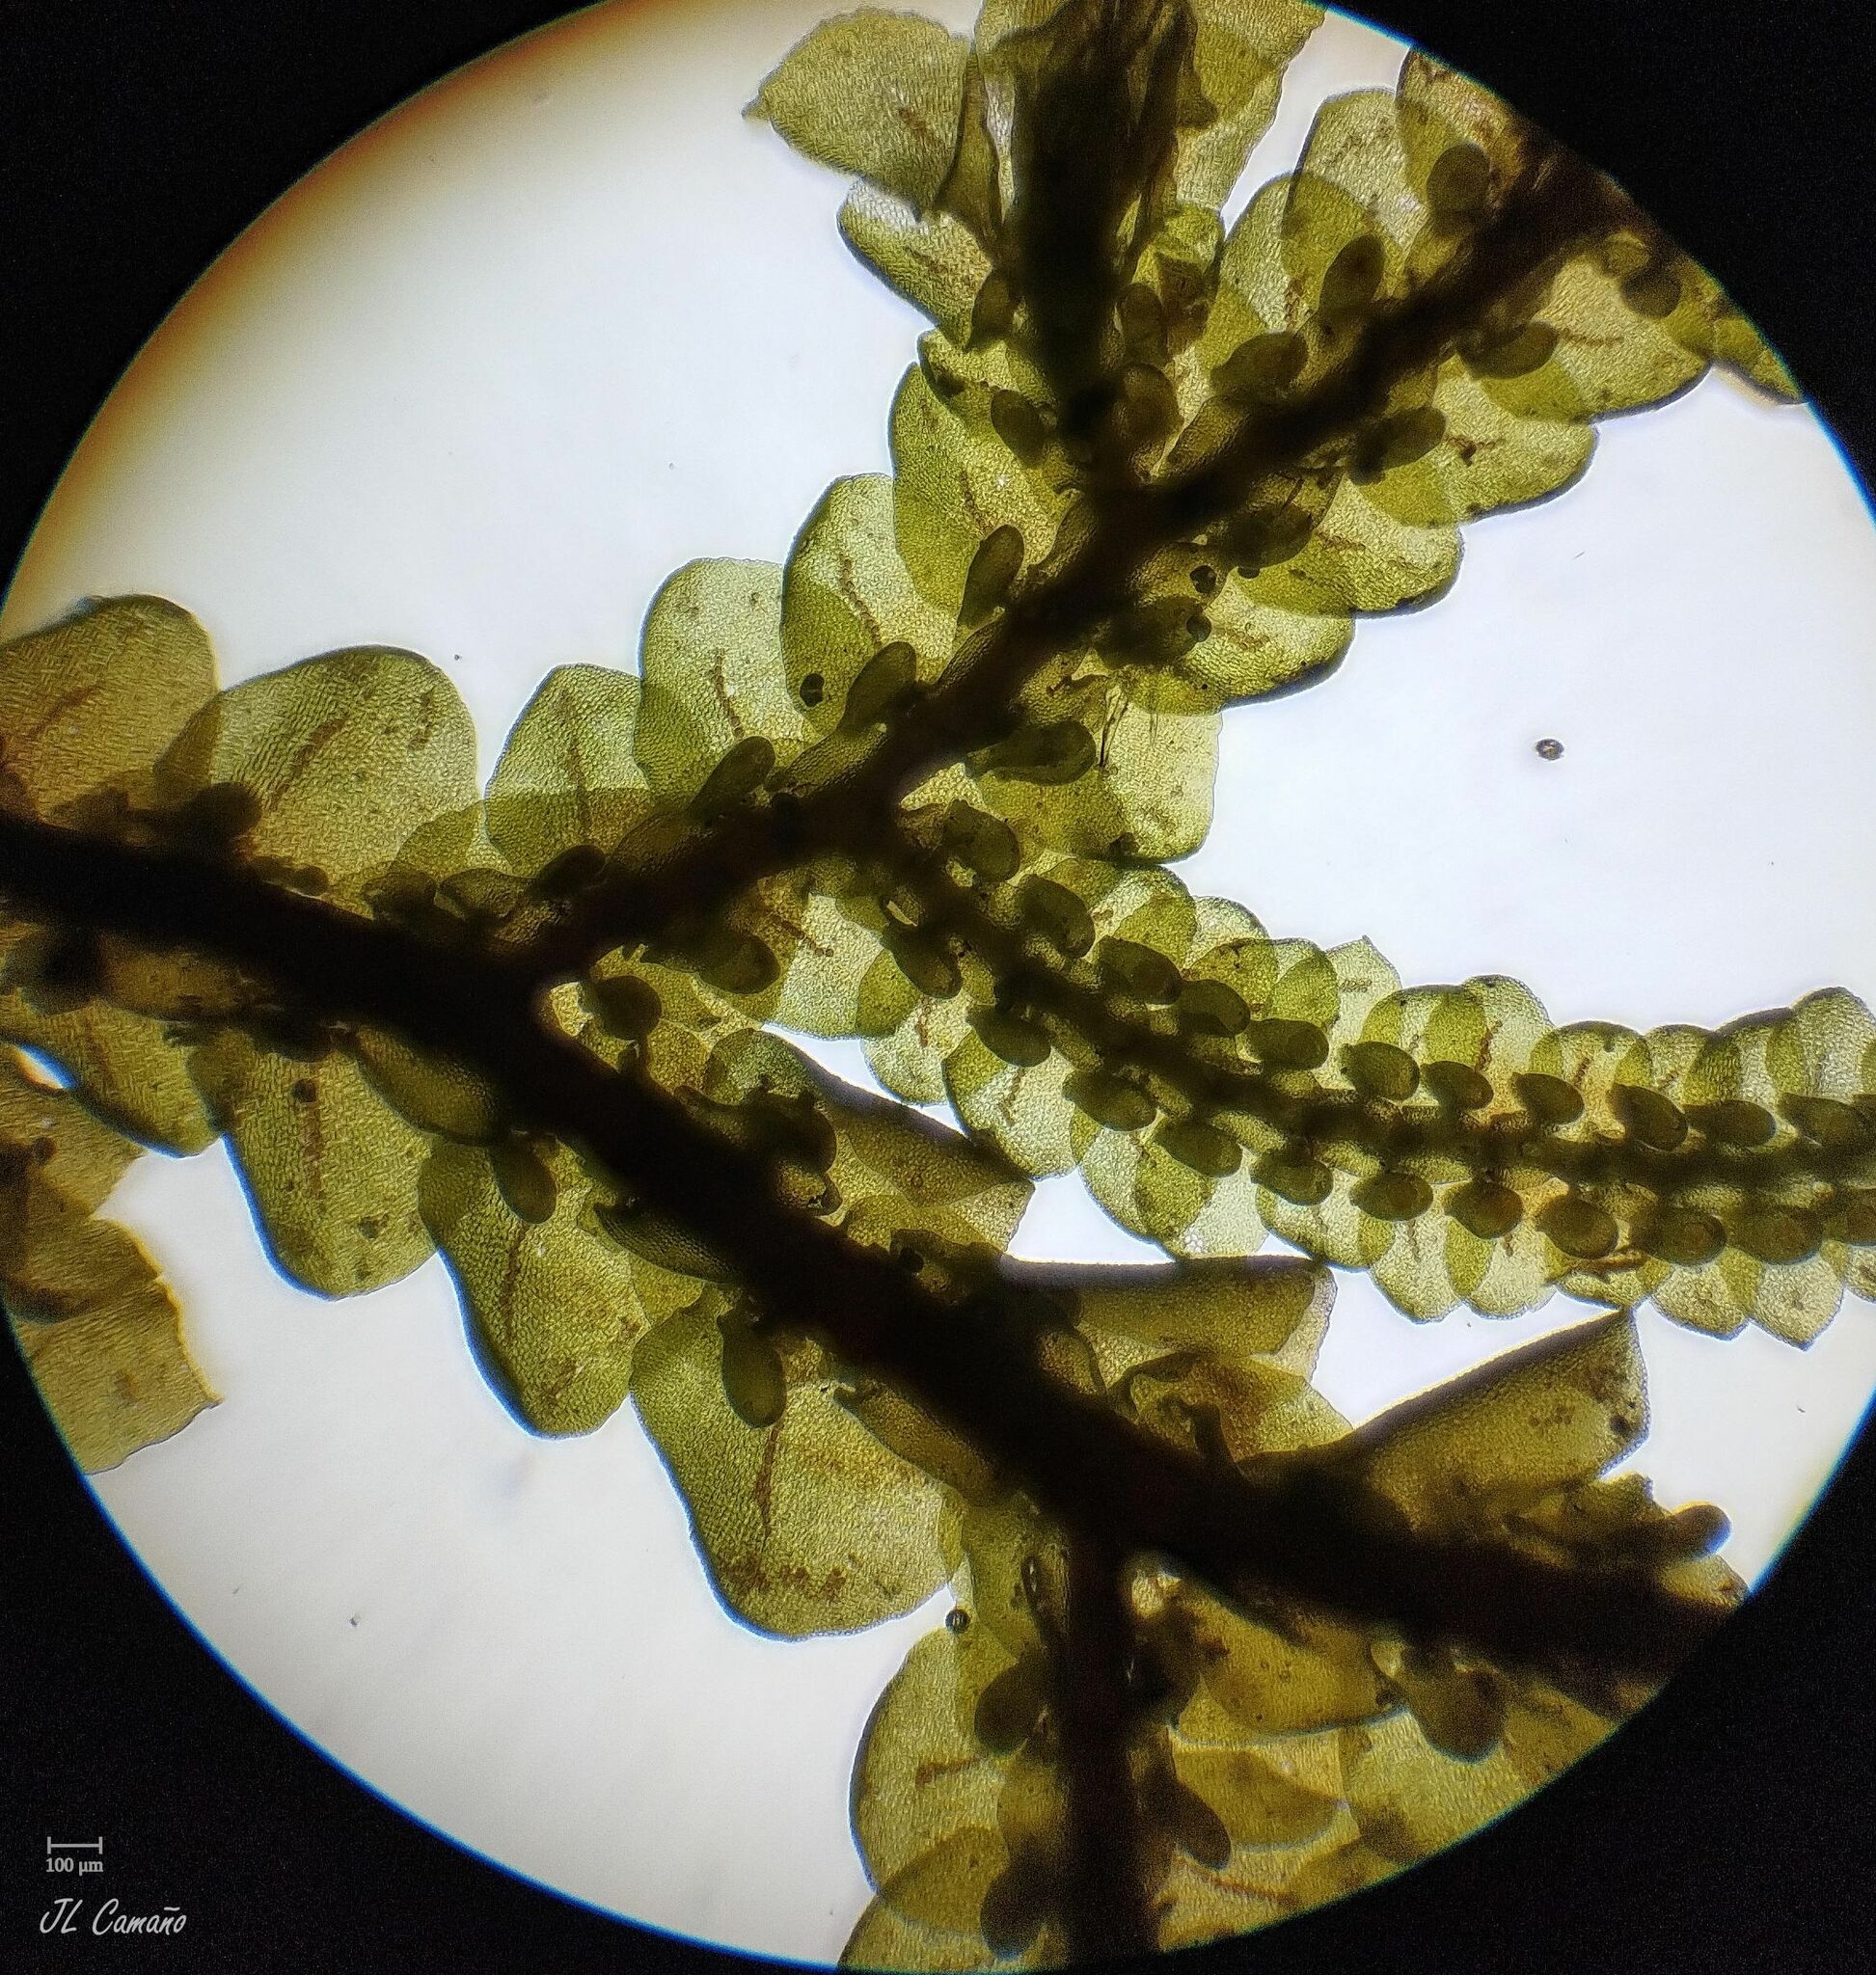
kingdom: Plantae
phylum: Marchantiophyta
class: Jungermanniopsida
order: Porellales
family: Frullaniaceae
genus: Frullania
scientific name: Frullania tamarisci
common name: Tamarisk scalewort
